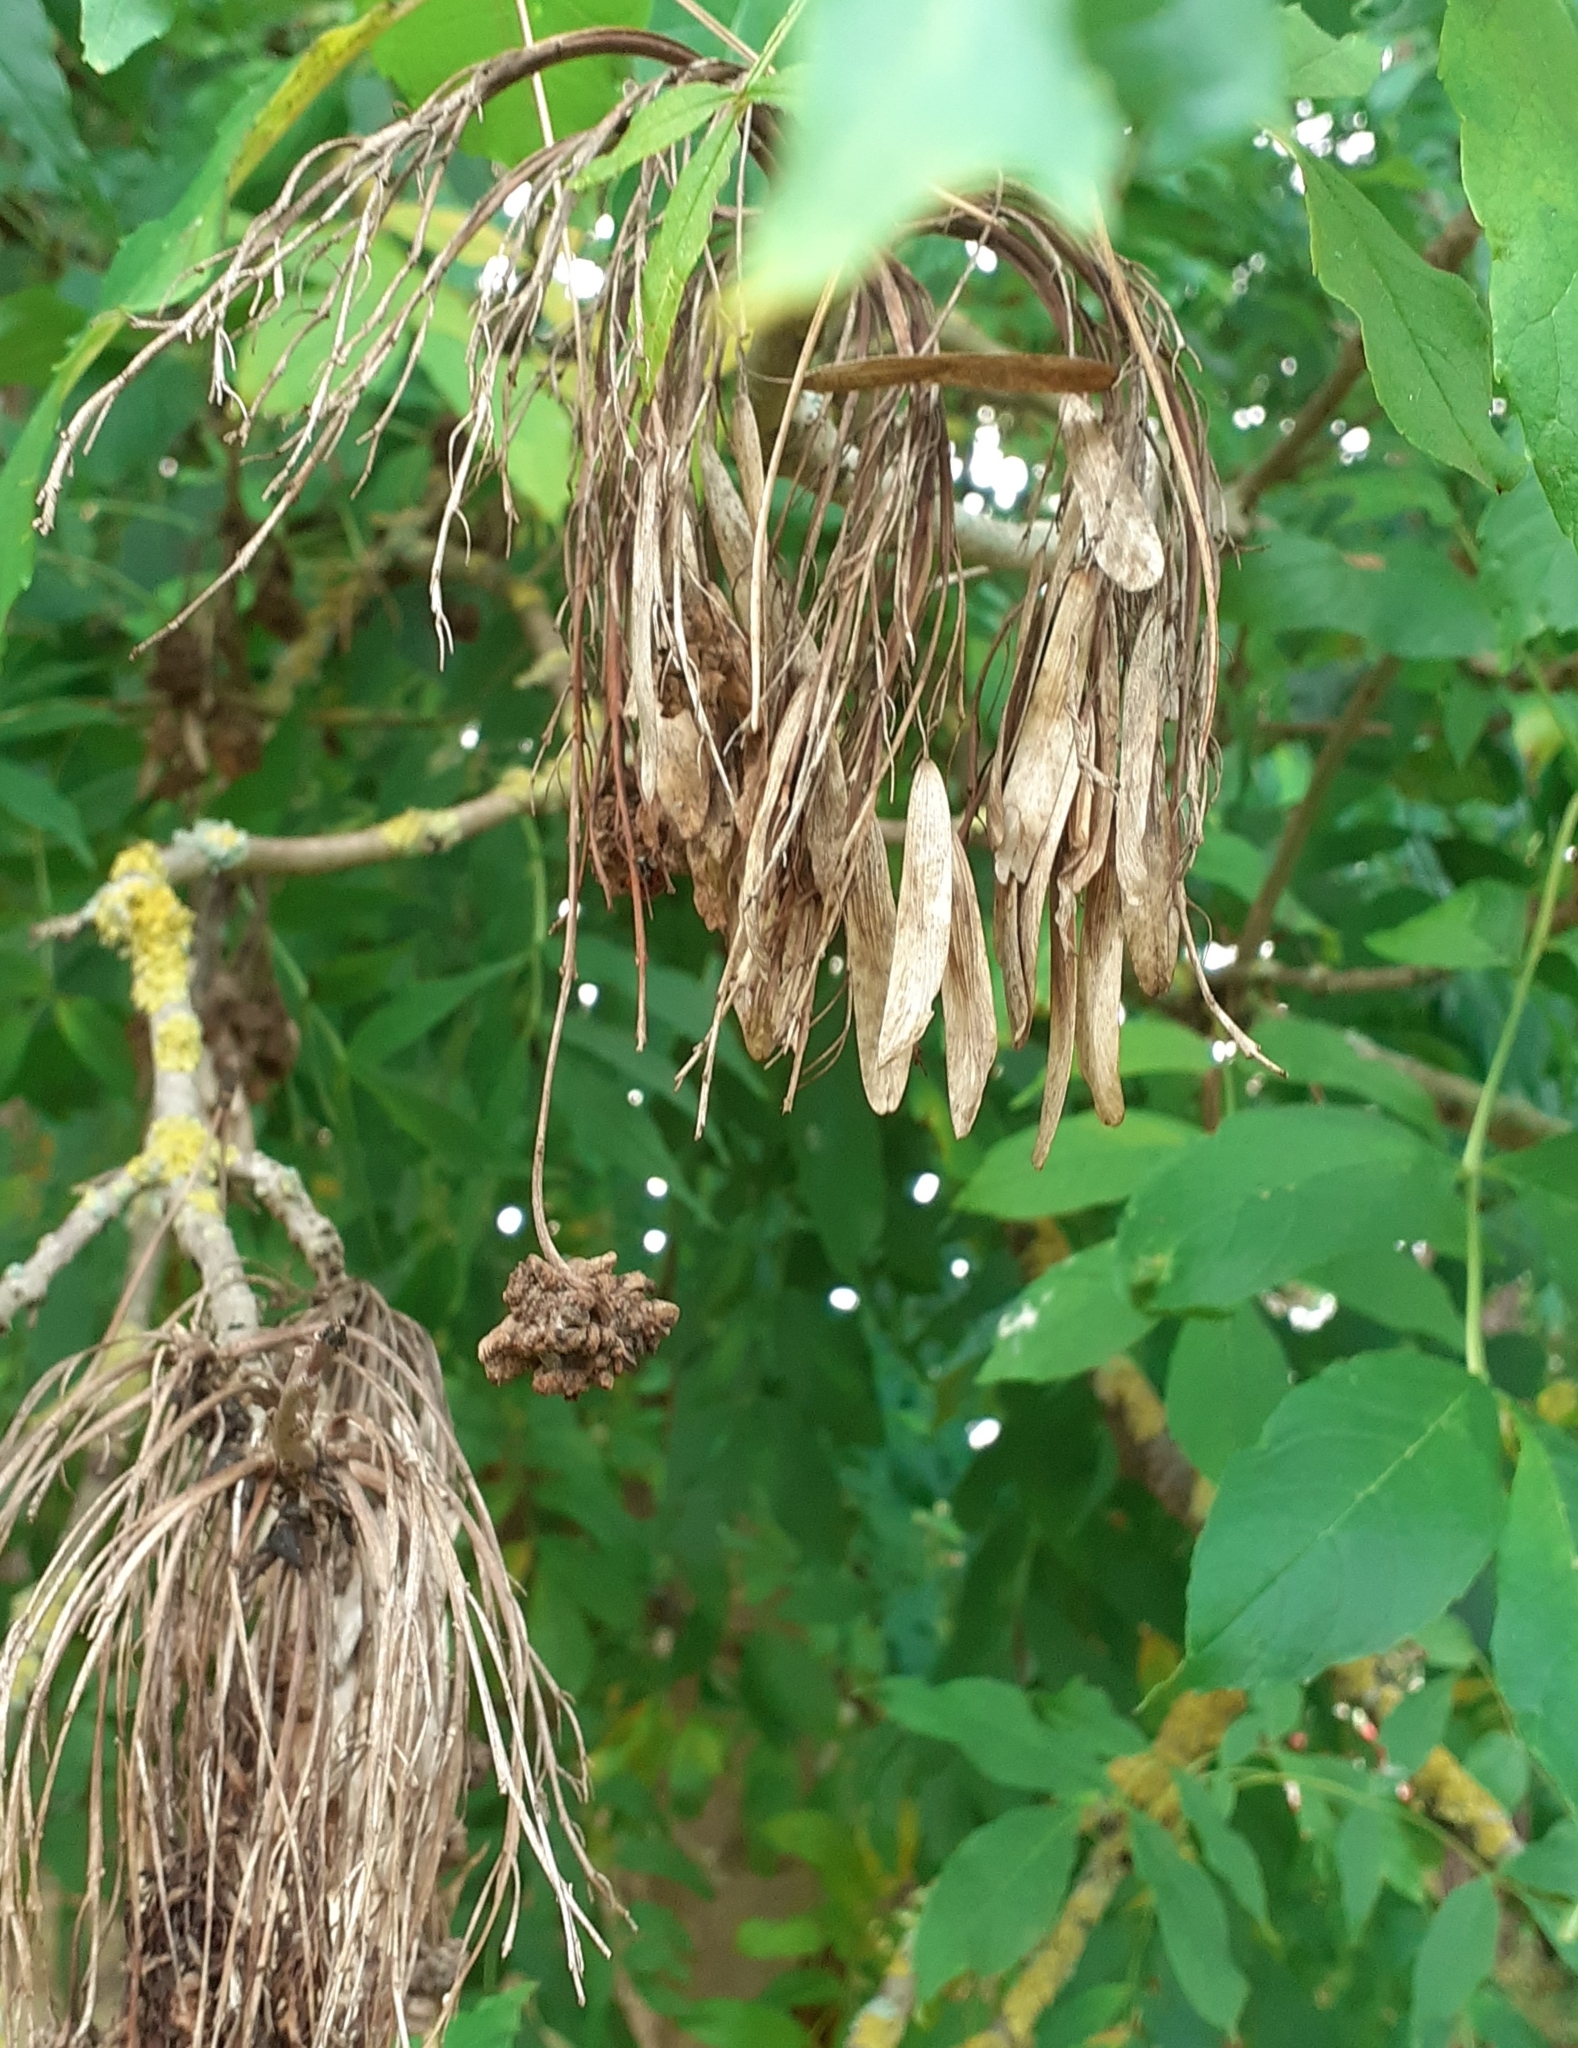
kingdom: Animalia
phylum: Arthropoda
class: Arachnida
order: Trombidiformes
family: Eriophyidae
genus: Aceria
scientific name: Aceria fraxinivora
